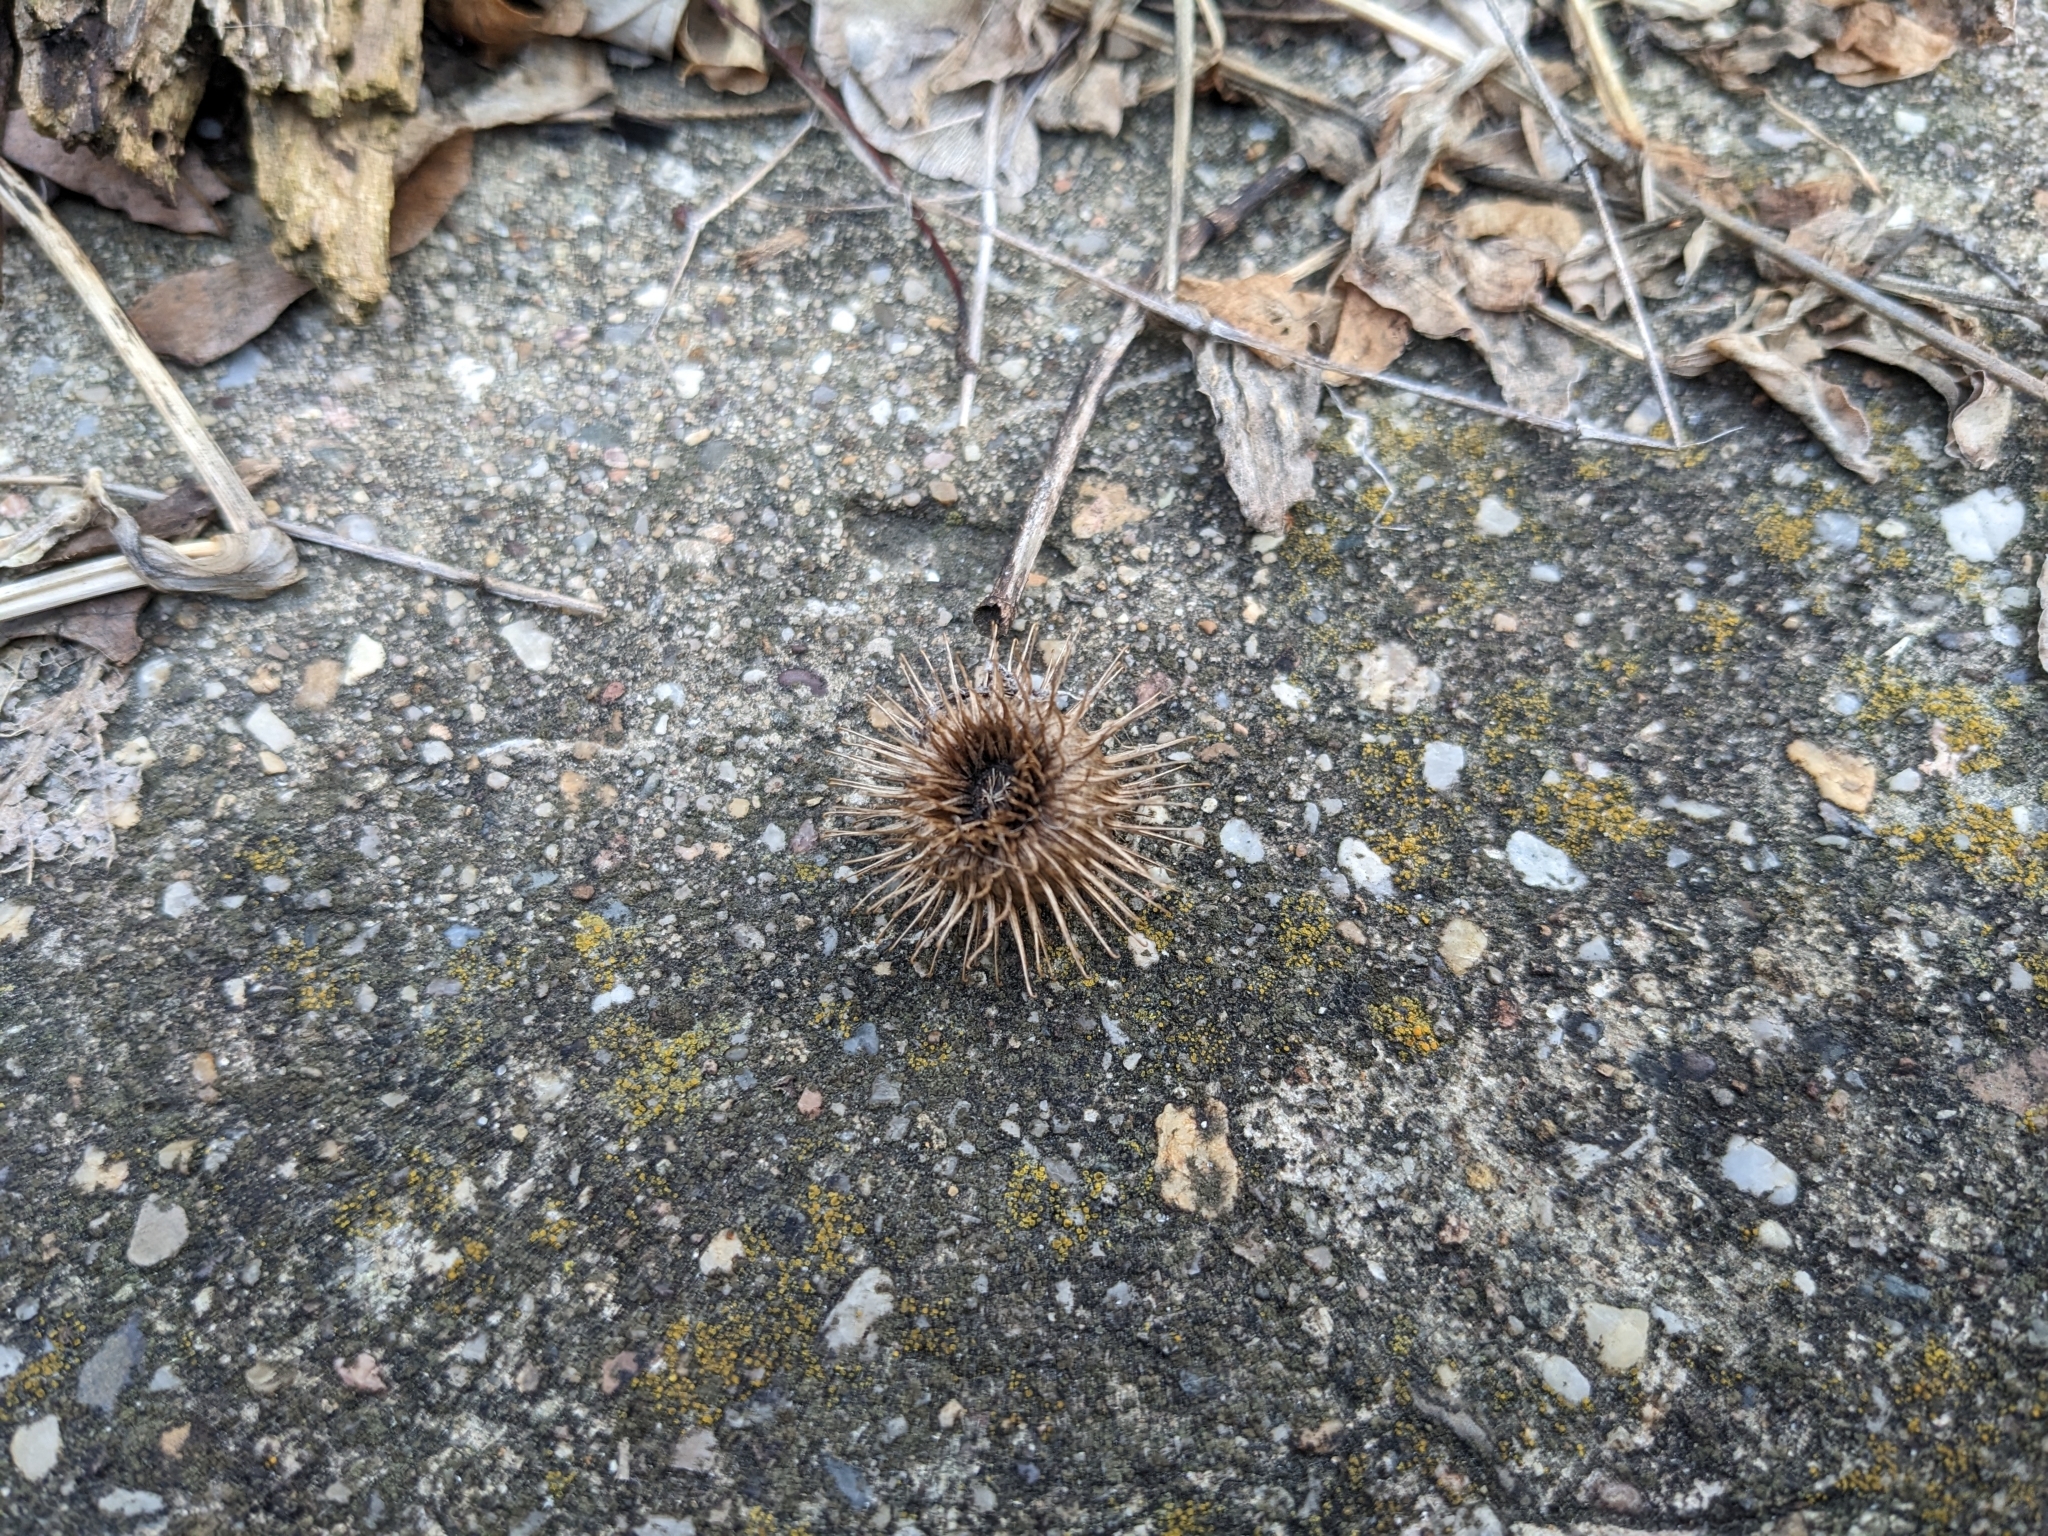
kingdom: Plantae
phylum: Tracheophyta
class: Magnoliopsida
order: Asterales
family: Asteraceae
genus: Arctium
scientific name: Arctium lappa
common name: Greater burdock
